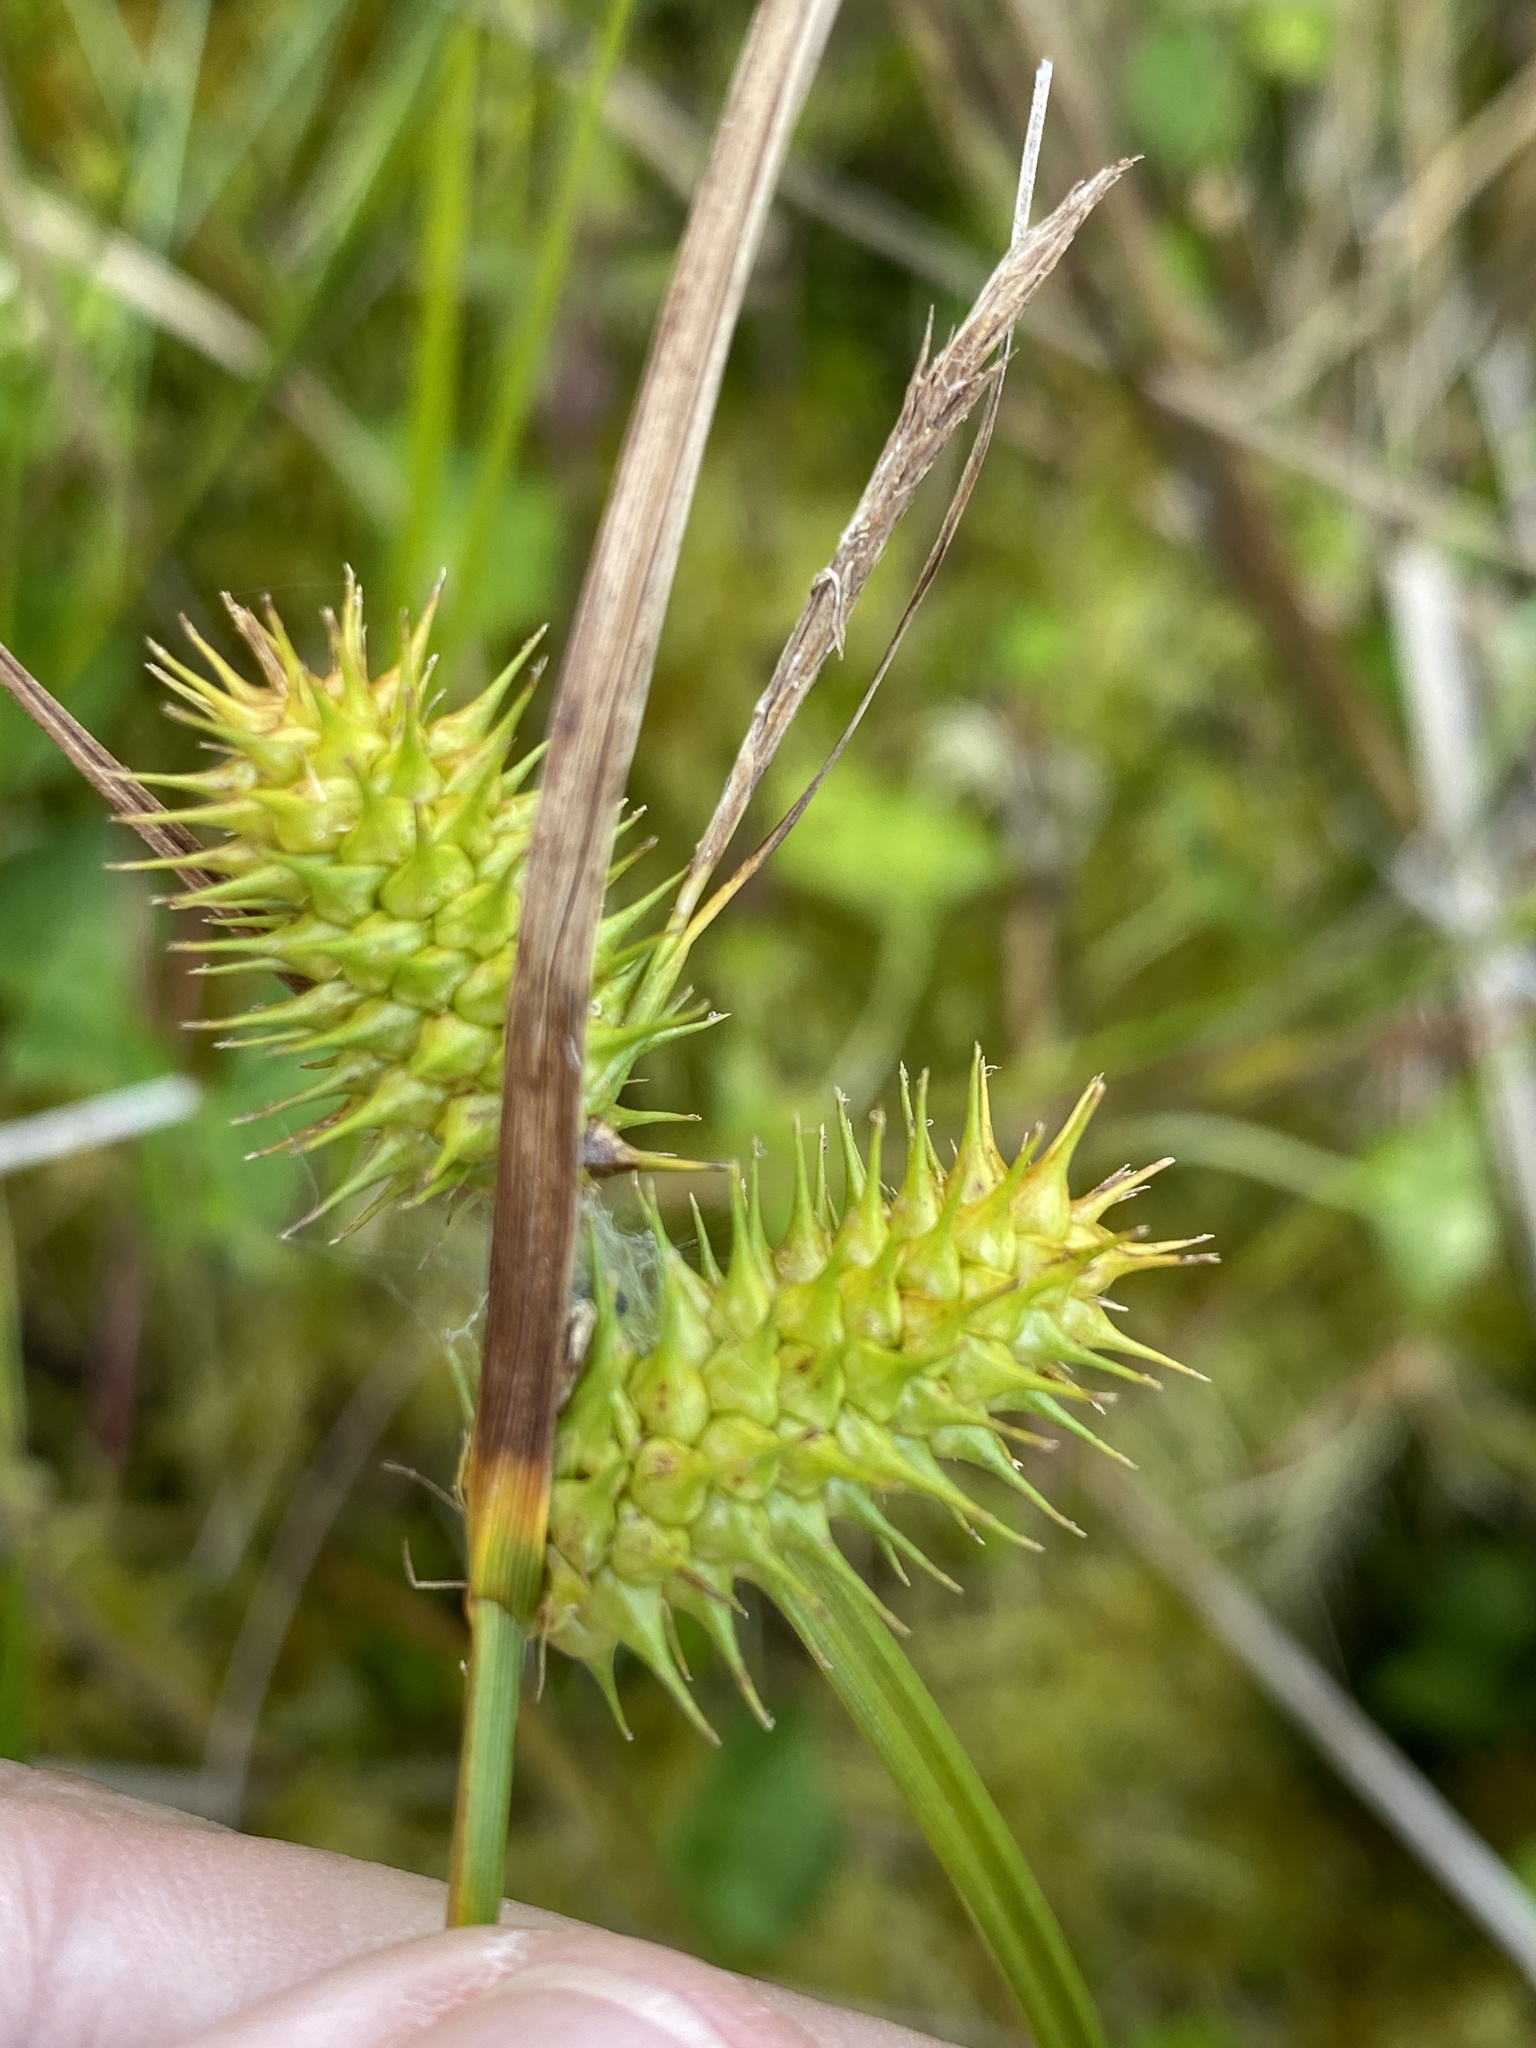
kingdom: Plantae
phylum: Tracheophyta
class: Liliopsida
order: Poales
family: Cyperaceae
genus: Carex
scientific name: Carex lurida
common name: Sallow sedge
